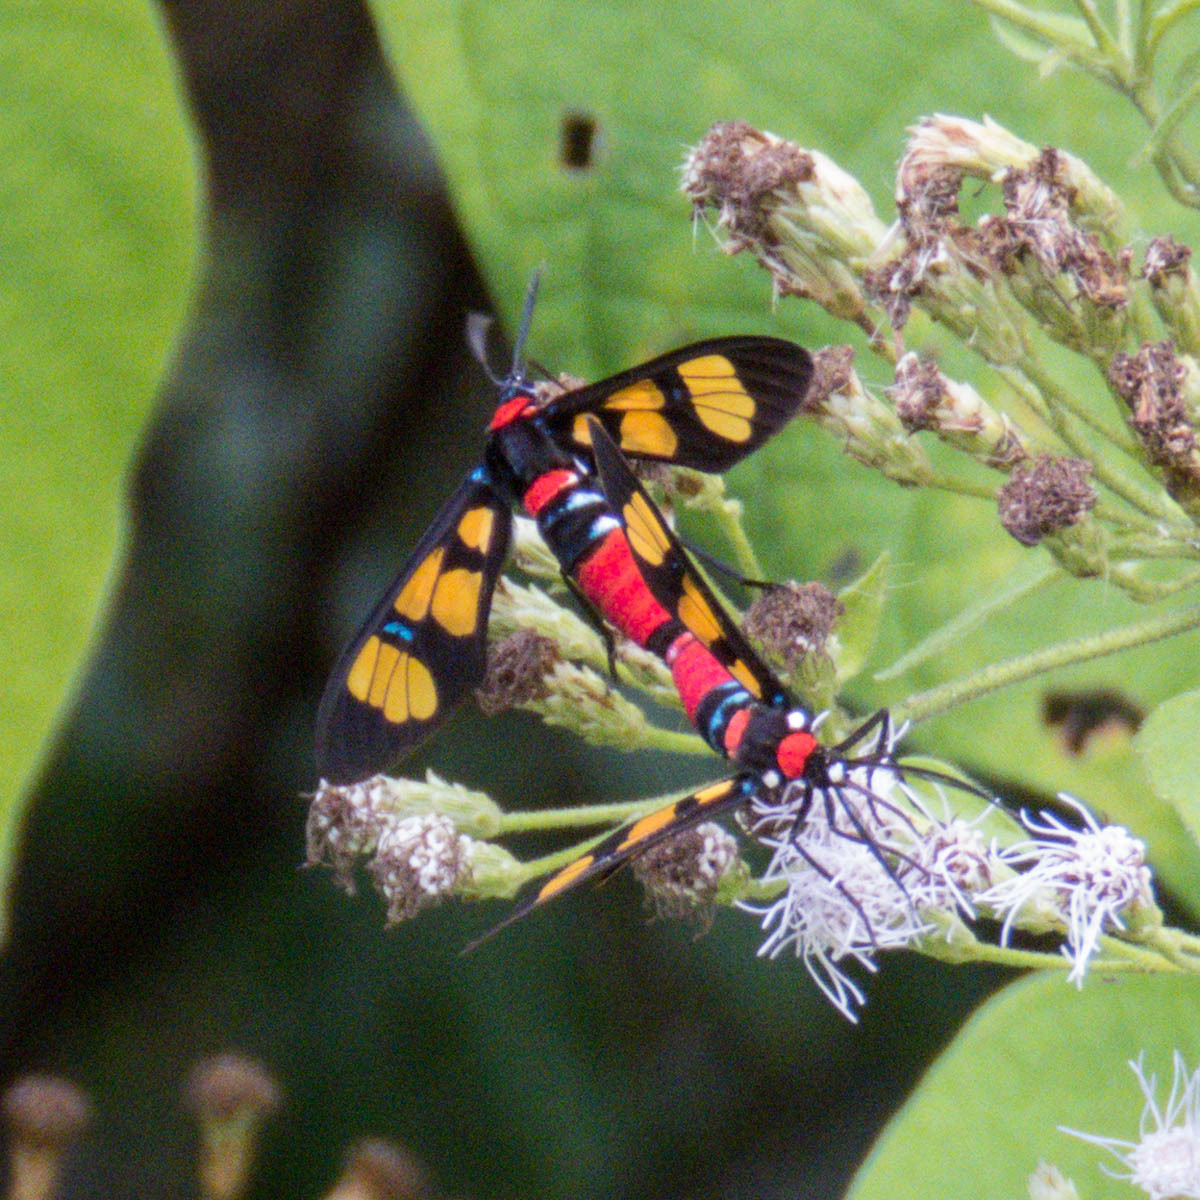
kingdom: Animalia
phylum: Arthropoda
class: Insecta
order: Lepidoptera
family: Erebidae
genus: Euchromia
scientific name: Euchromia polymena
